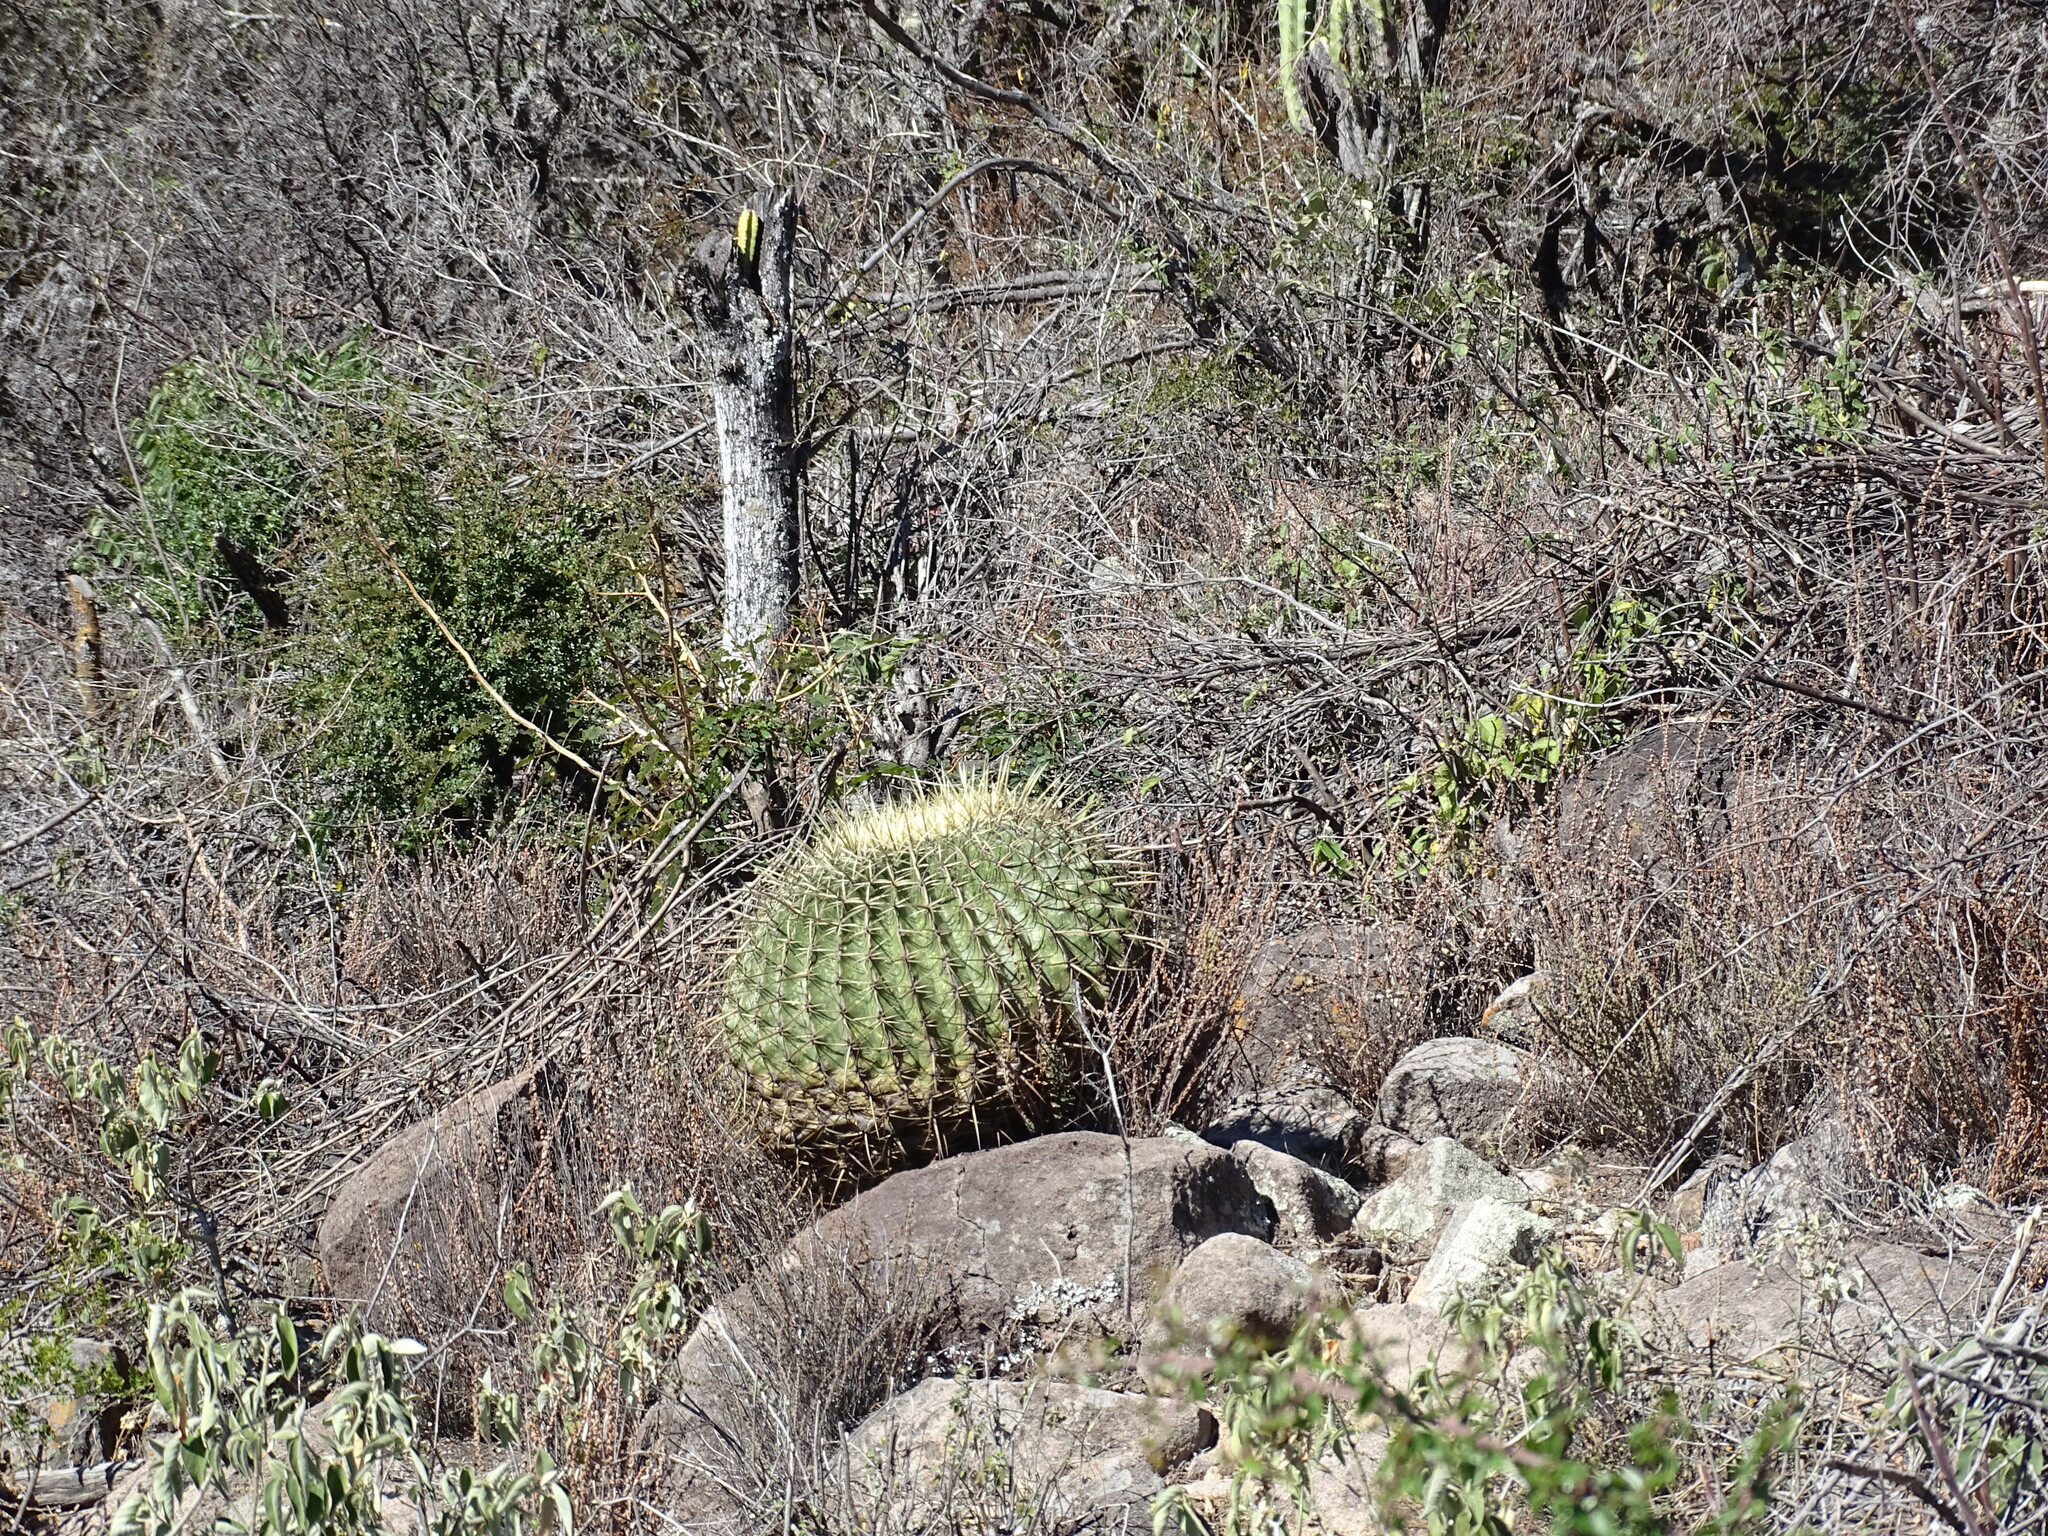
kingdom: Plantae
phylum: Tracheophyta
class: Magnoliopsida
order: Caryophyllales
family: Cactaceae
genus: Bisnaga
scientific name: Bisnaga histrix
